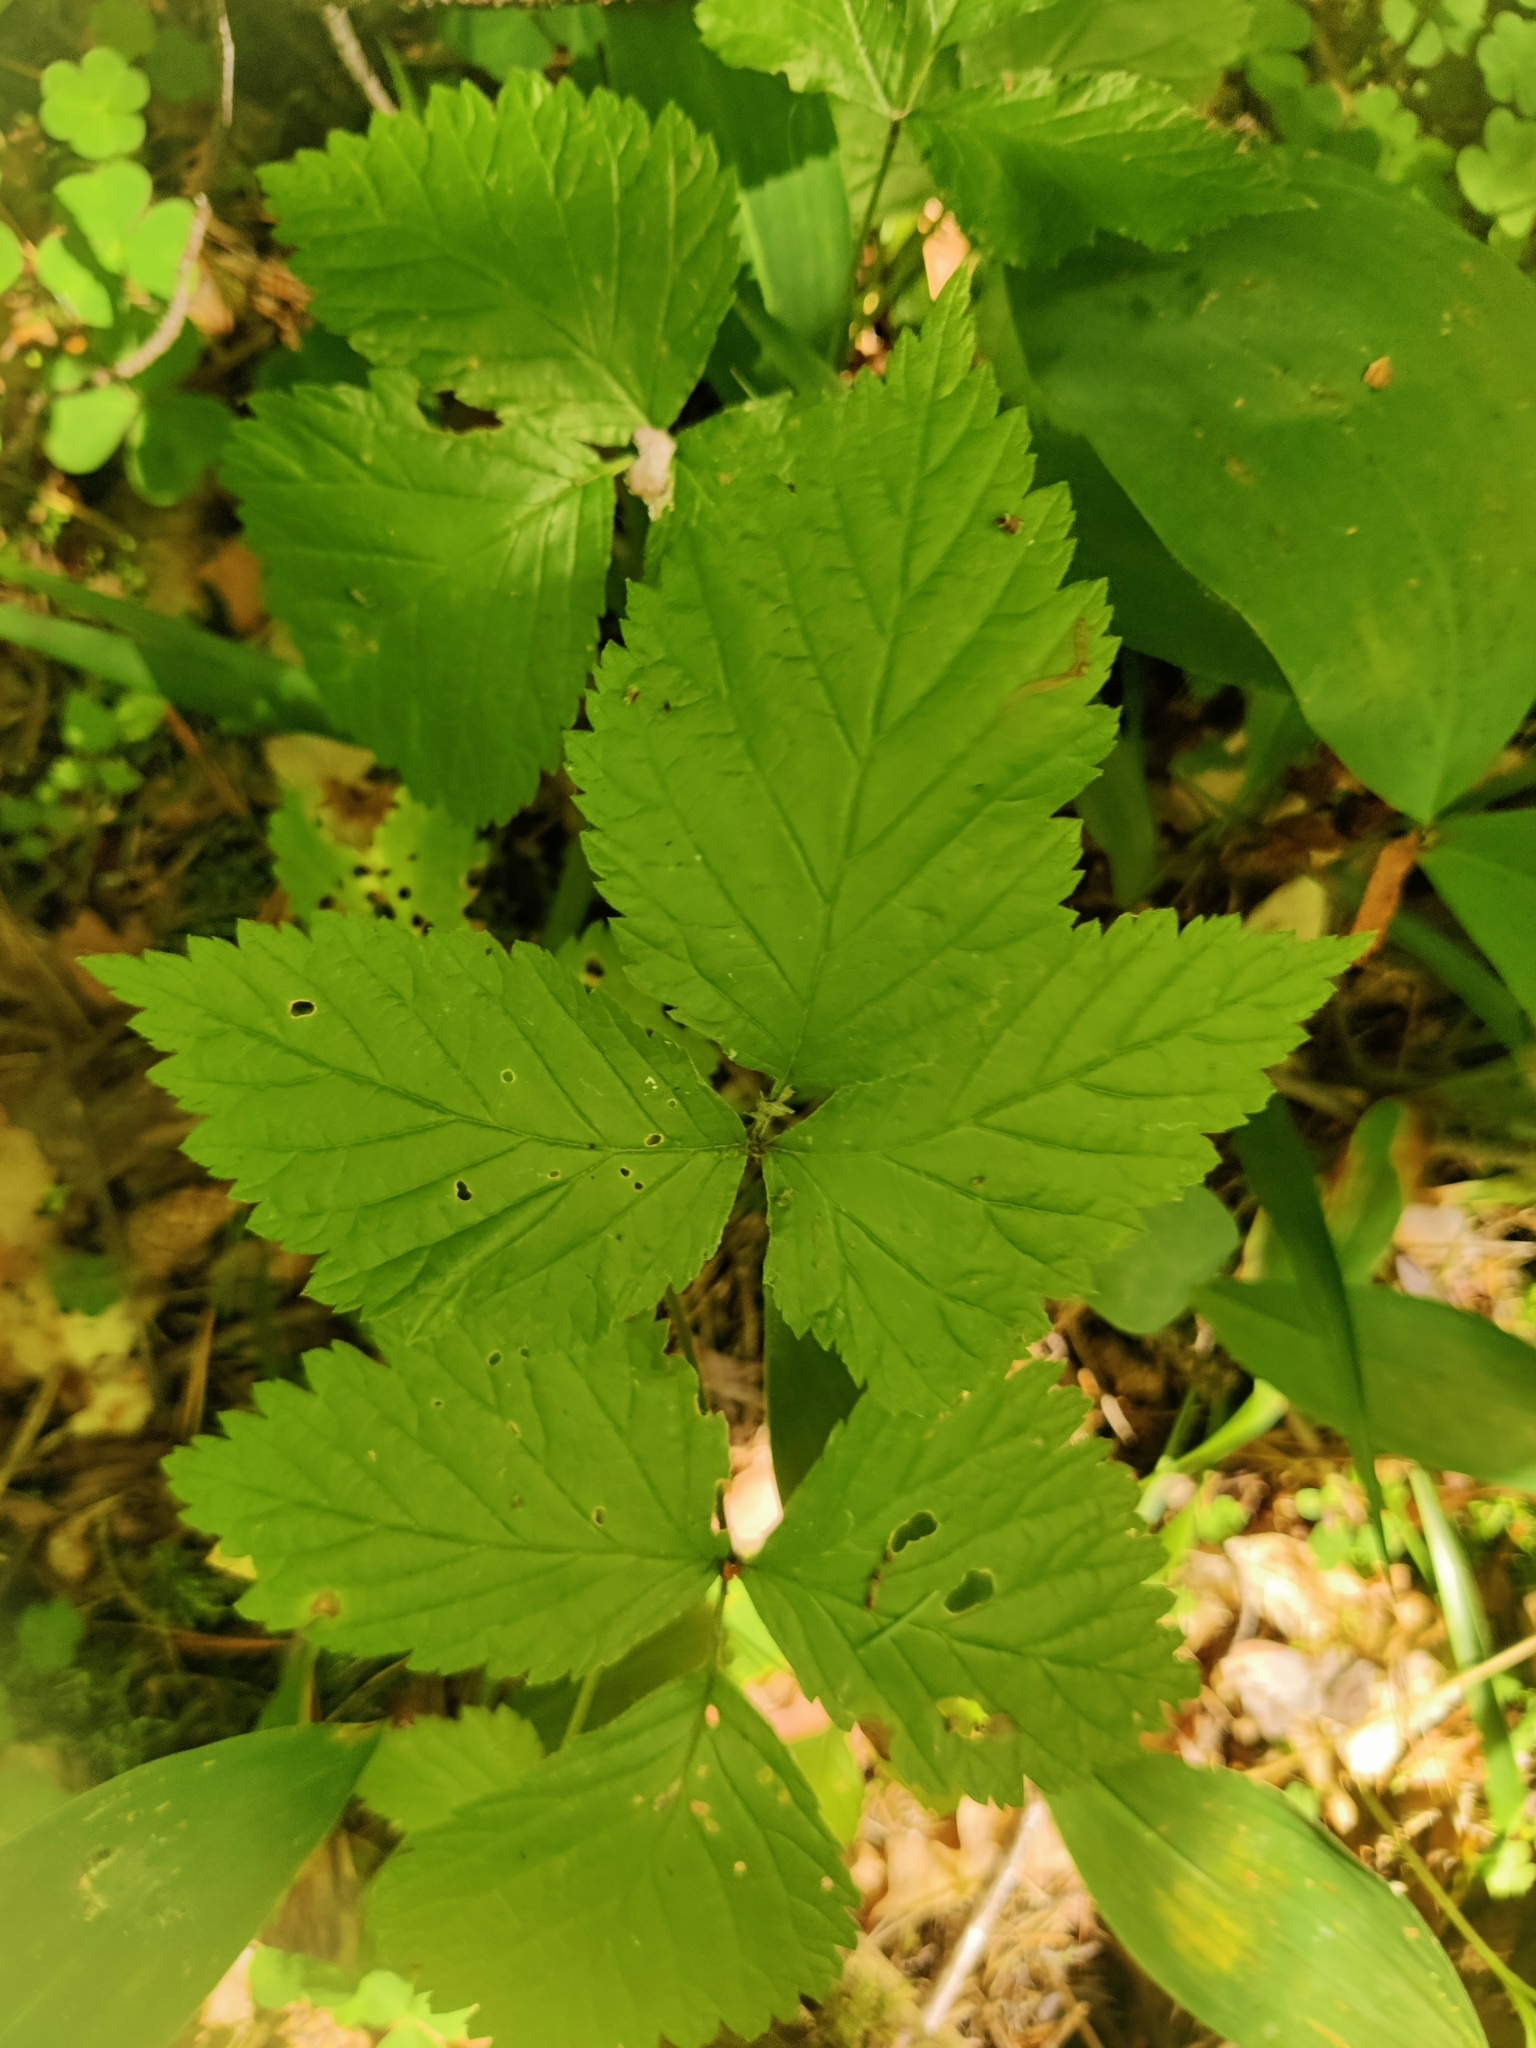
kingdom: Plantae
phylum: Tracheophyta
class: Magnoliopsida
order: Rosales
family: Rosaceae
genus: Rubus
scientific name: Rubus saxatilis
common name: Stone bramble
